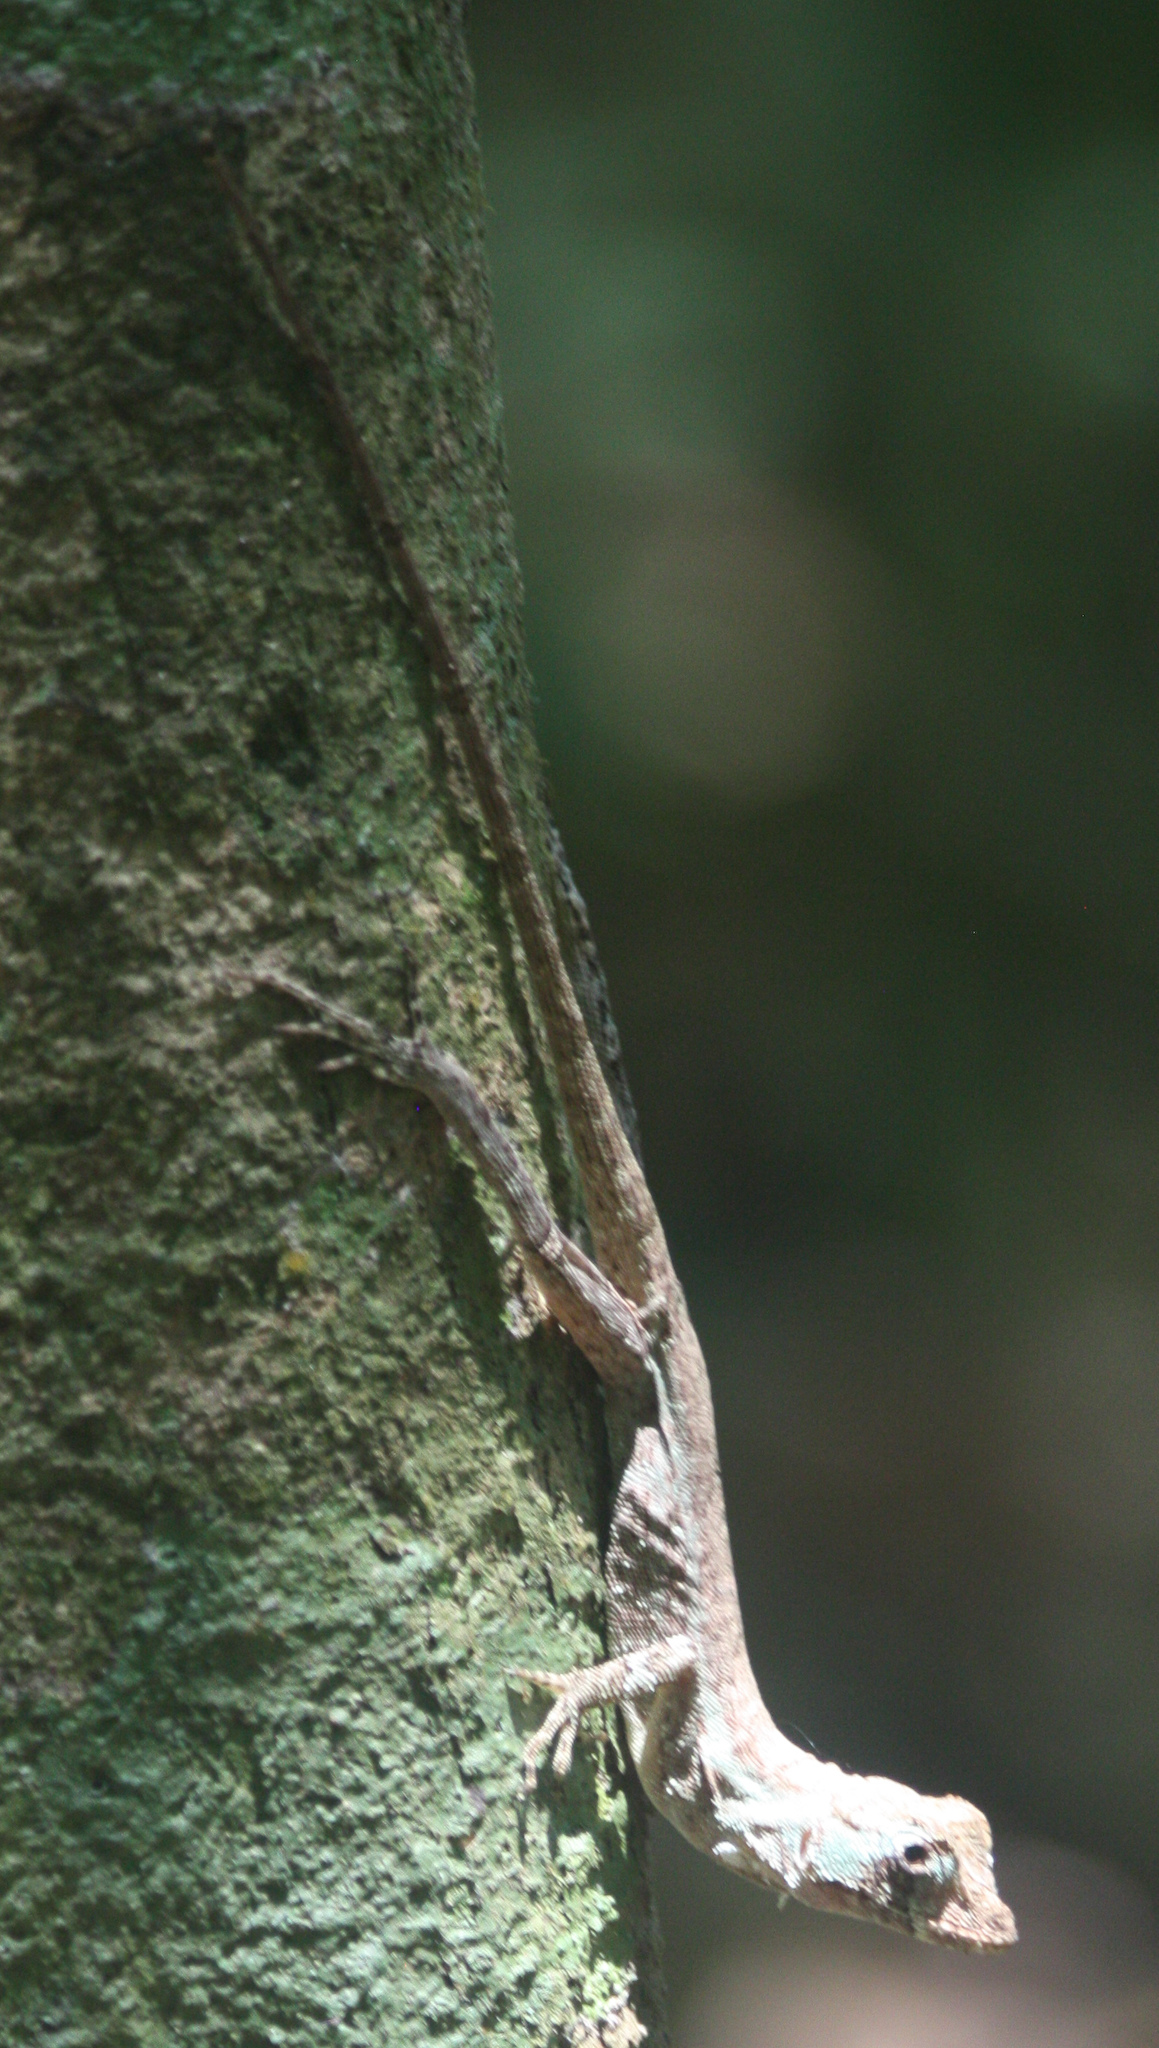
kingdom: Animalia
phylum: Chordata
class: Squamata
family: Dactyloidae
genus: Anolis
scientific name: Anolis capito
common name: Bighead anole
